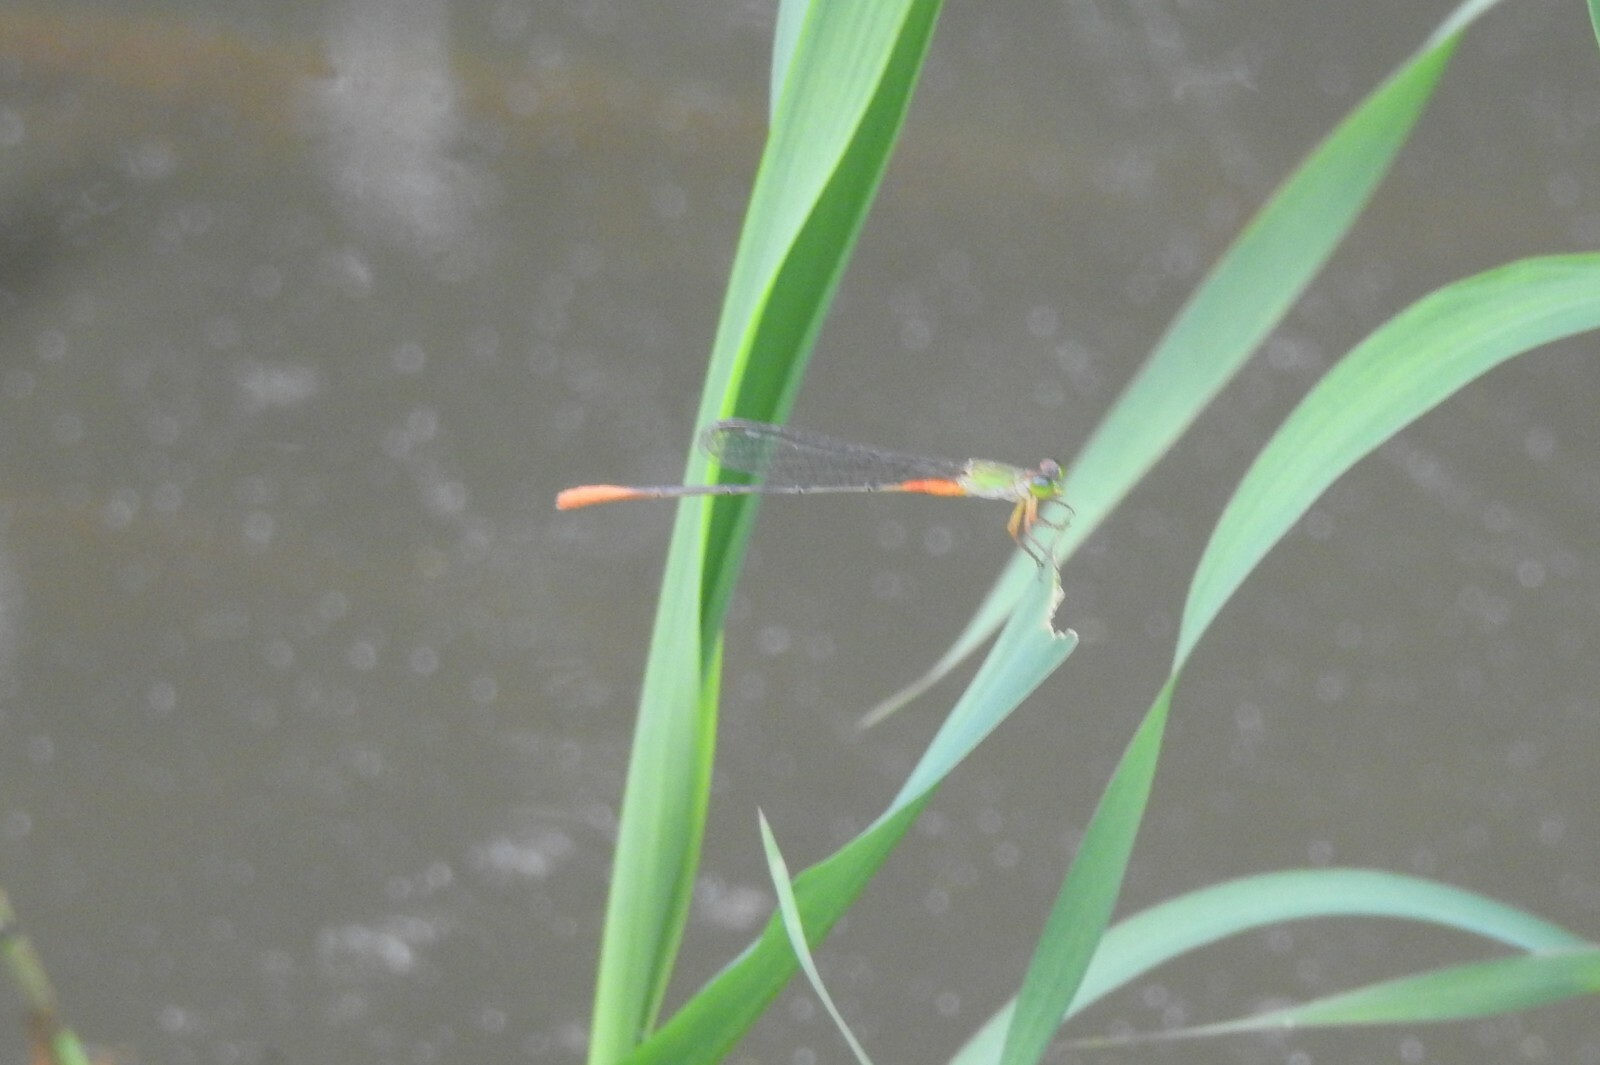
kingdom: Animalia
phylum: Arthropoda
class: Insecta
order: Odonata
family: Coenagrionidae
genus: Ceriagrion
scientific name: Ceriagrion cerinorubellum
